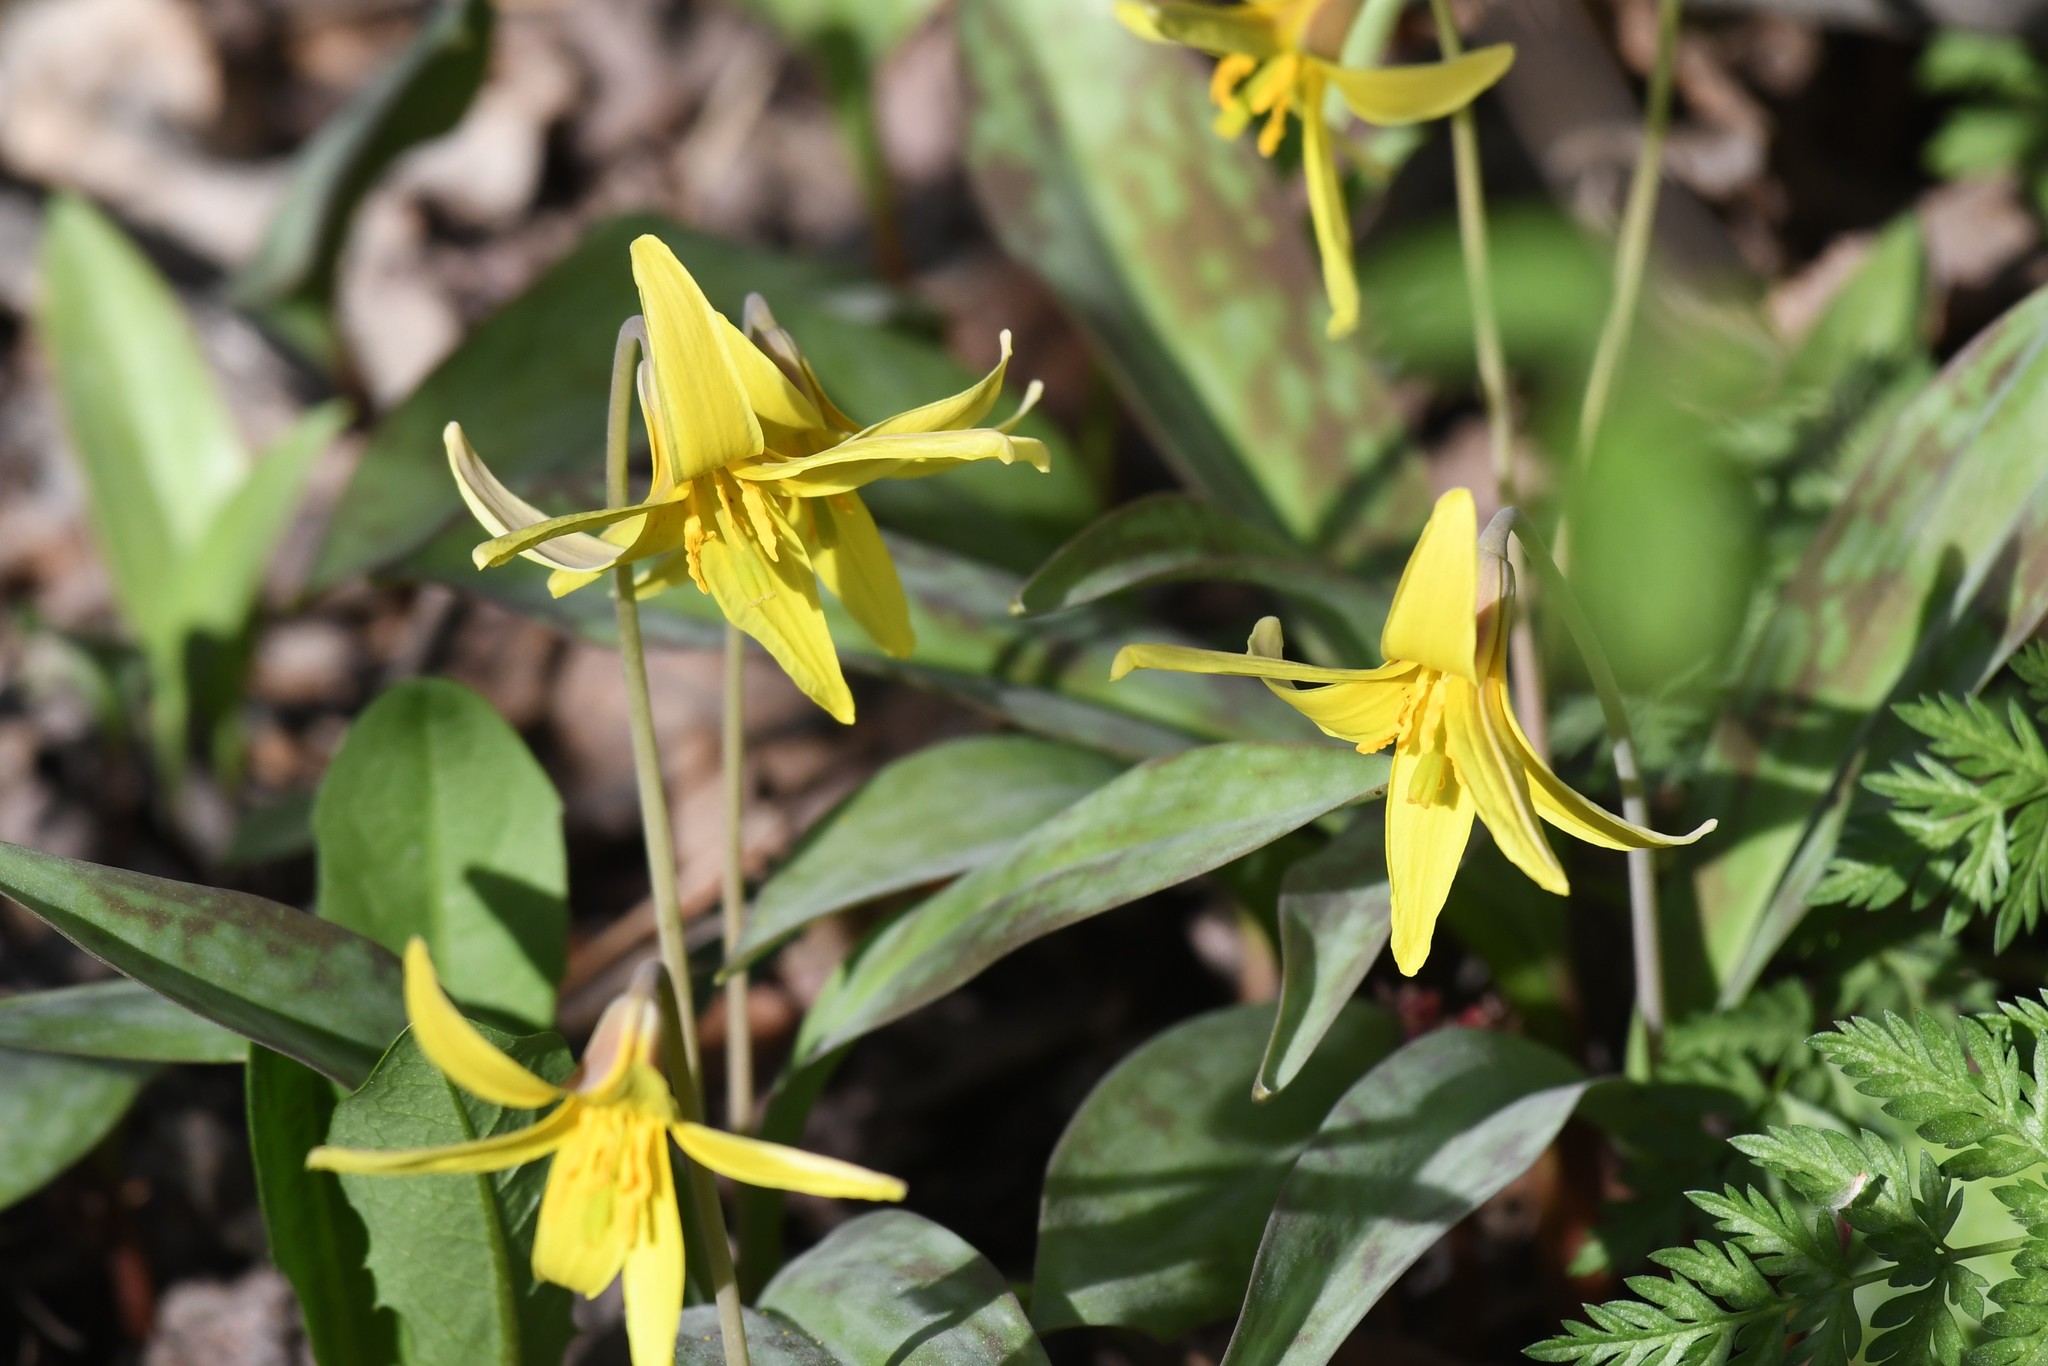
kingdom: Plantae
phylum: Tracheophyta
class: Liliopsida
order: Liliales
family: Liliaceae
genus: Erythronium
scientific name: Erythronium americanum
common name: Yellow adder's-tongue
